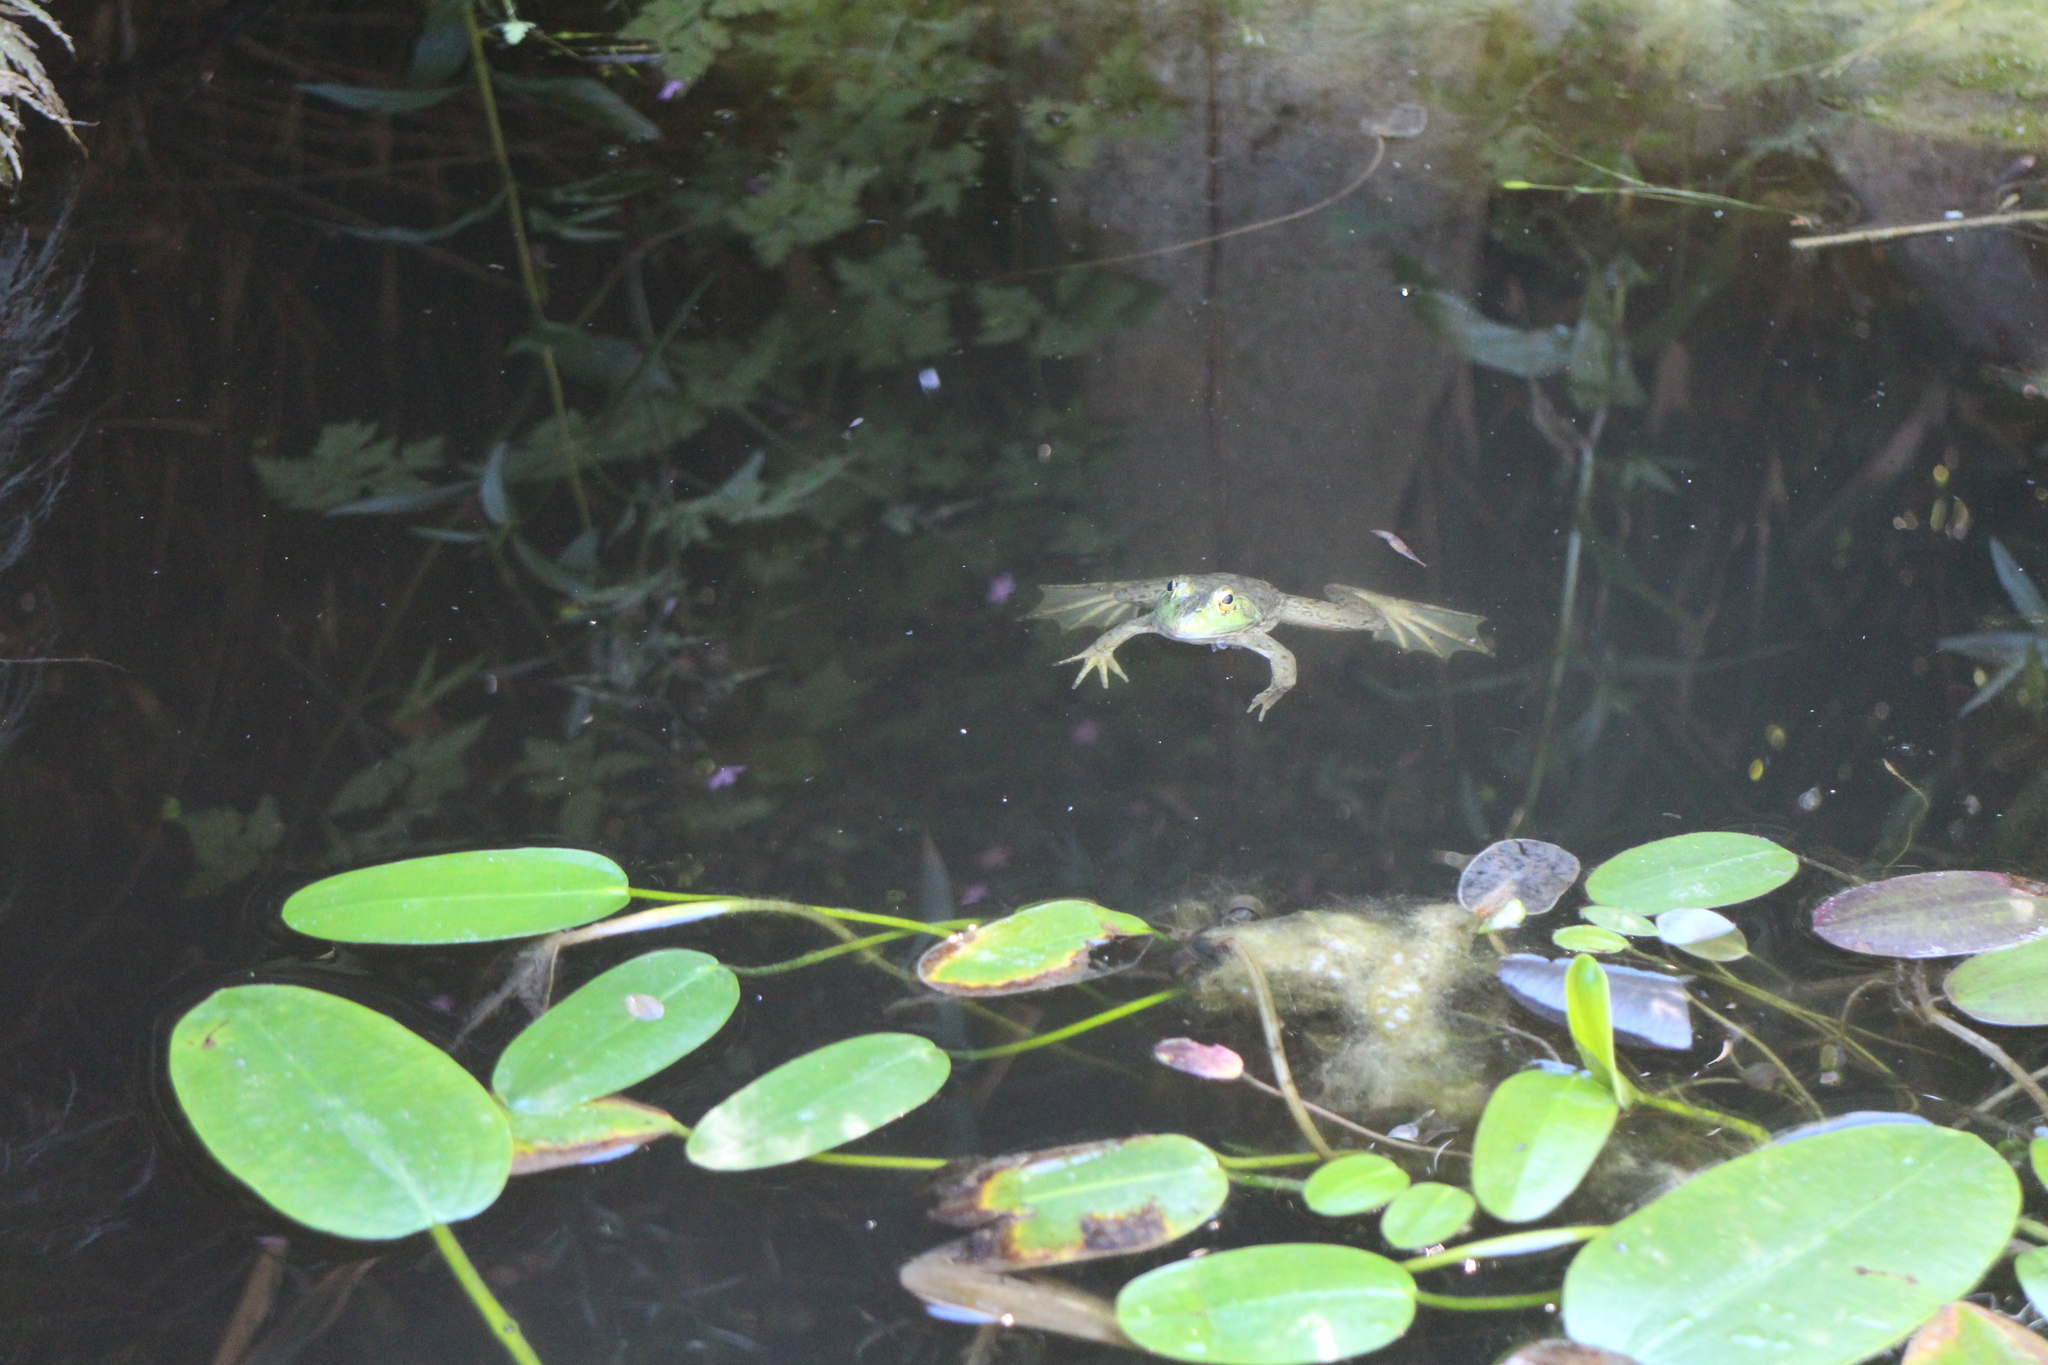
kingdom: Animalia
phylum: Chordata
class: Amphibia
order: Anura
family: Ranidae
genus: Lithobates
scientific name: Lithobates catesbeianus
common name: American bullfrog
